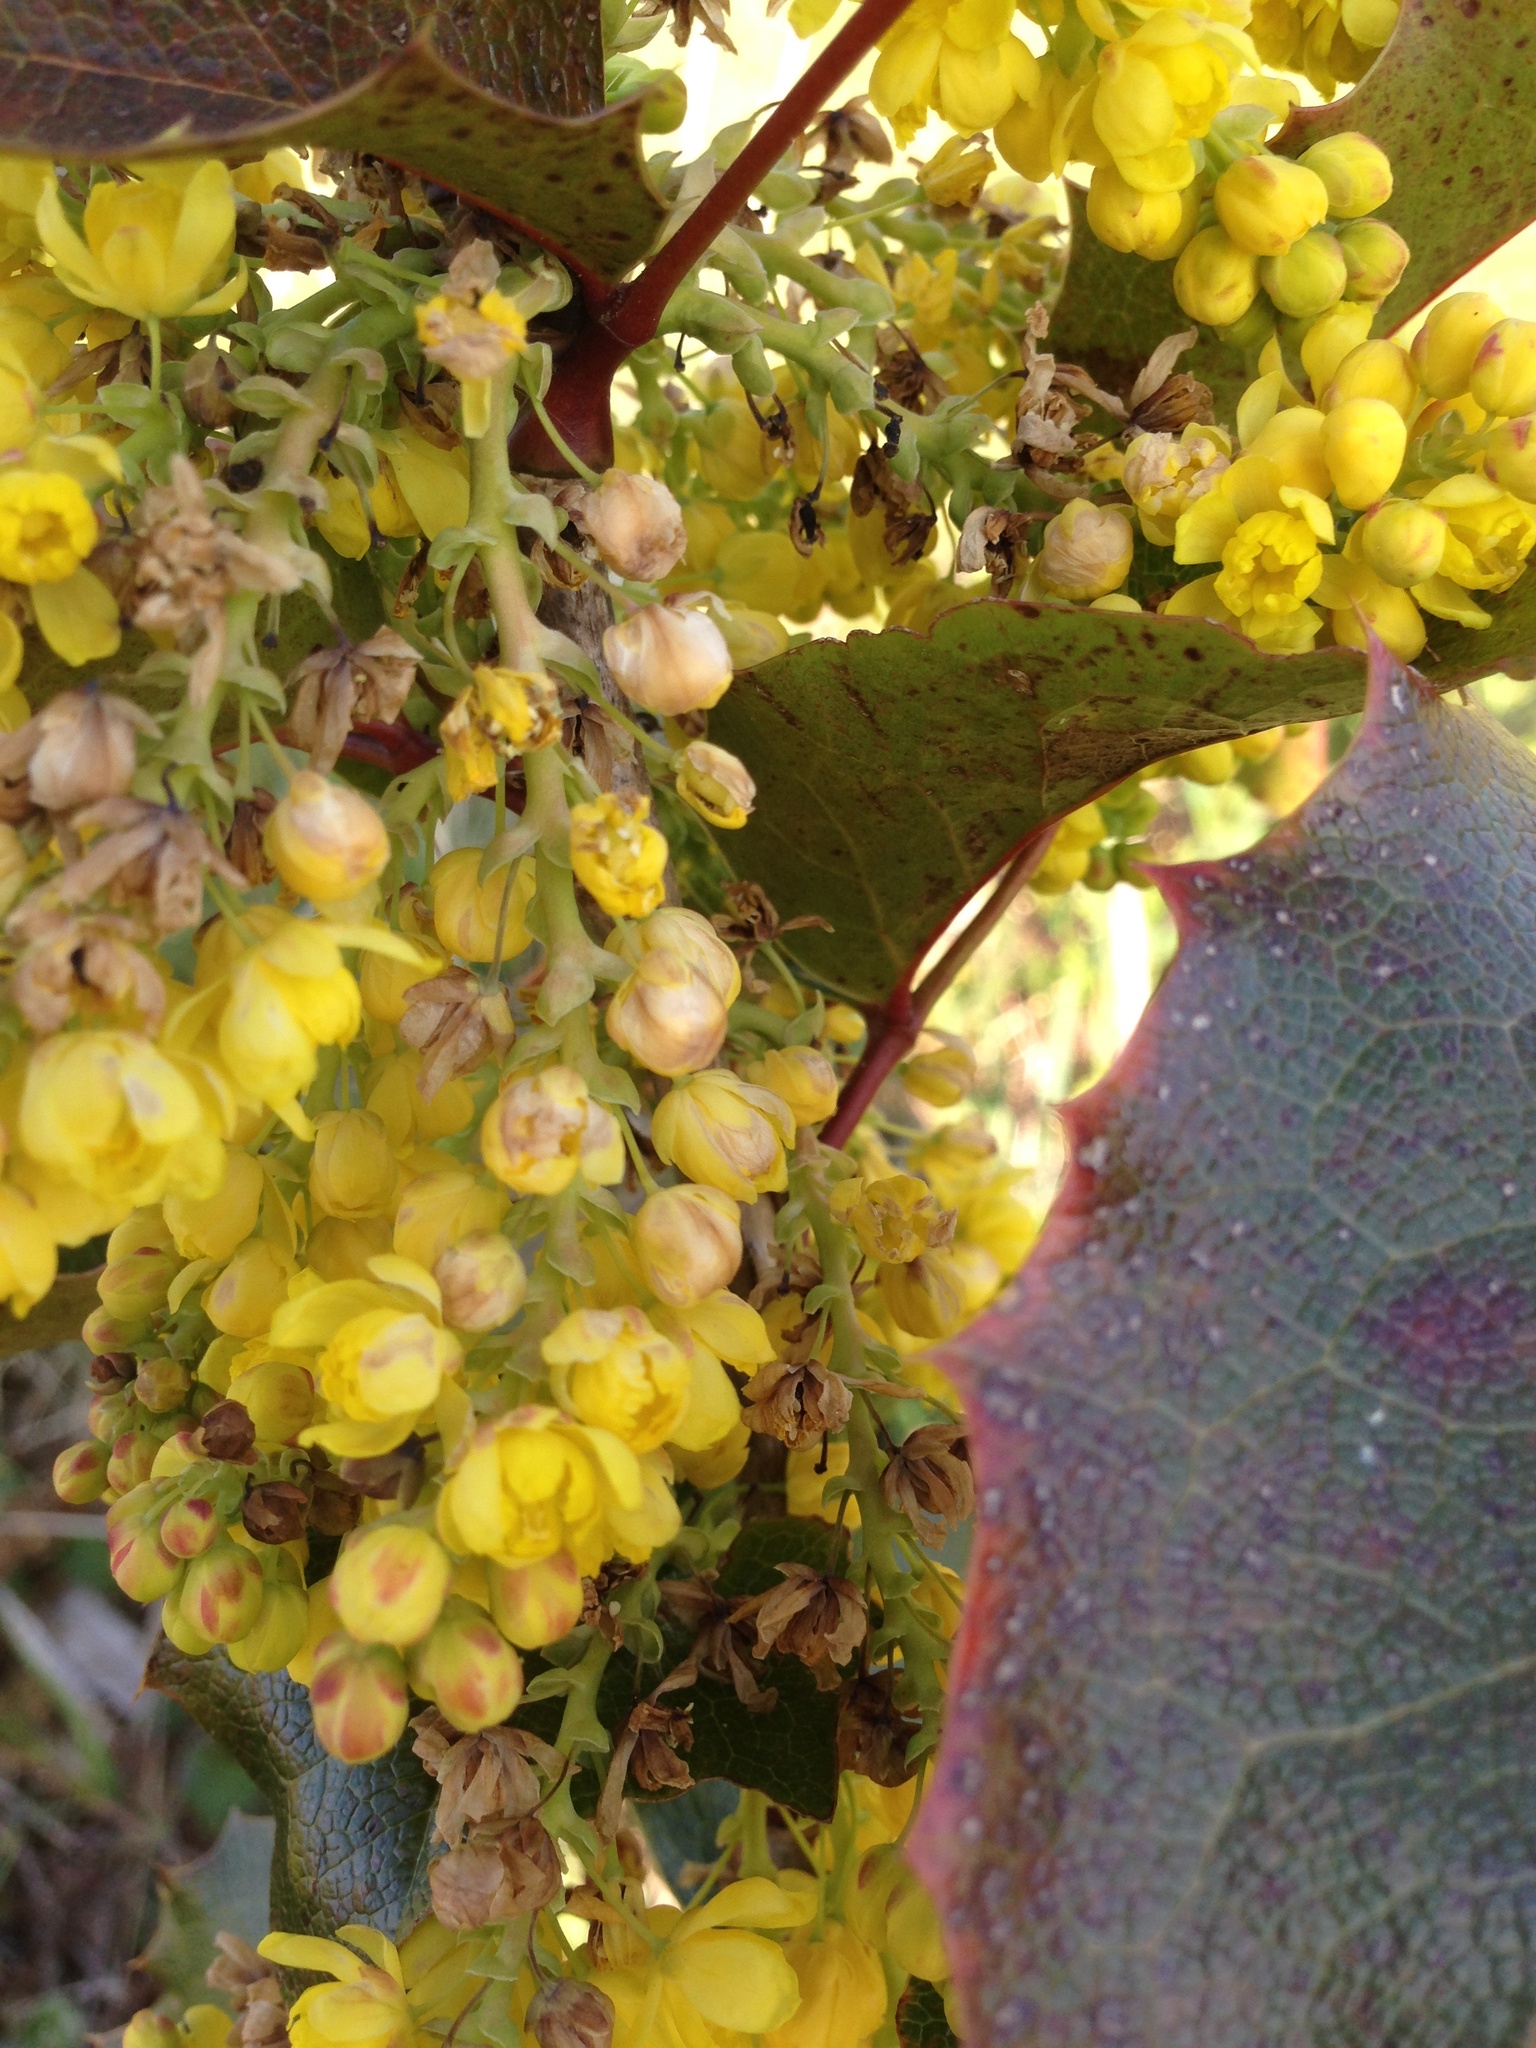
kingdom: Plantae
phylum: Tracheophyta
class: Magnoliopsida
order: Ranunculales
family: Berberidaceae
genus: Mahonia
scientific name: Mahonia aquifolium
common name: Oregon-grape
